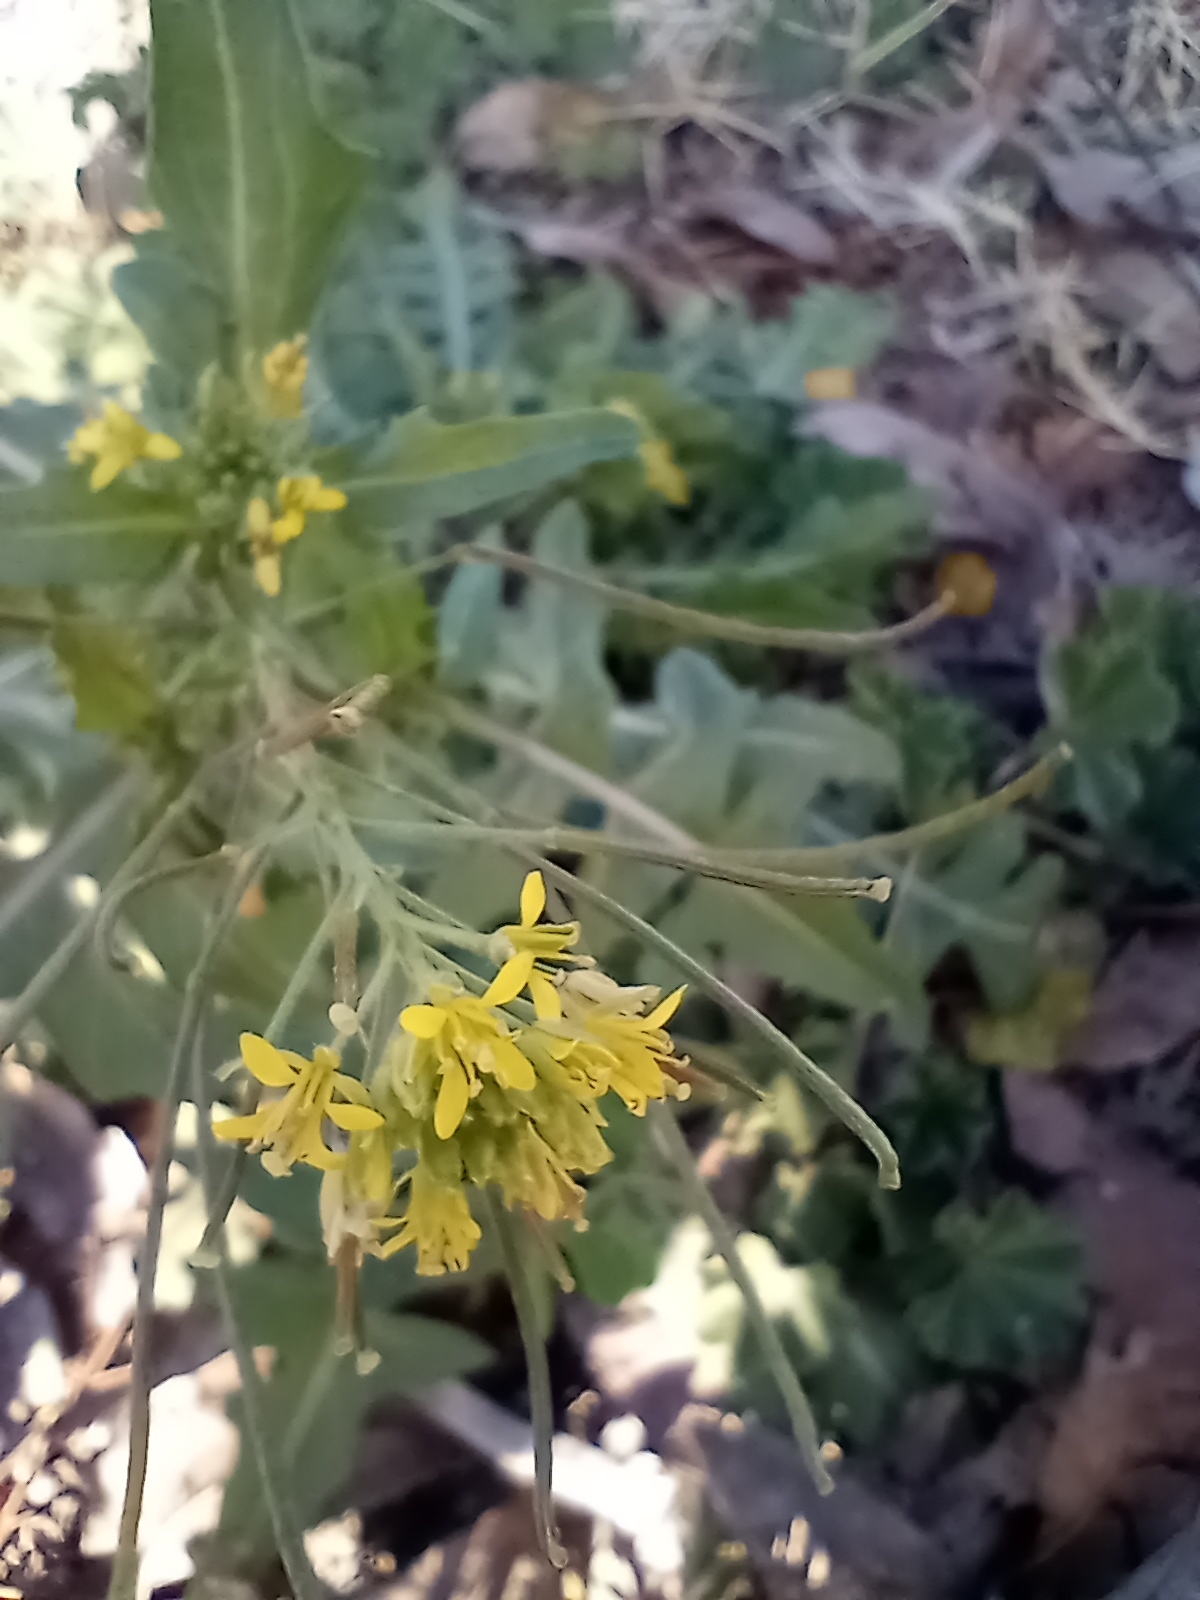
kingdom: Plantae
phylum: Tracheophyta
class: Magnoliopsida
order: Brassicales
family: Brassicaceae
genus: Sisymbrium
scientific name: Sisymbrium irio
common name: London rocket
